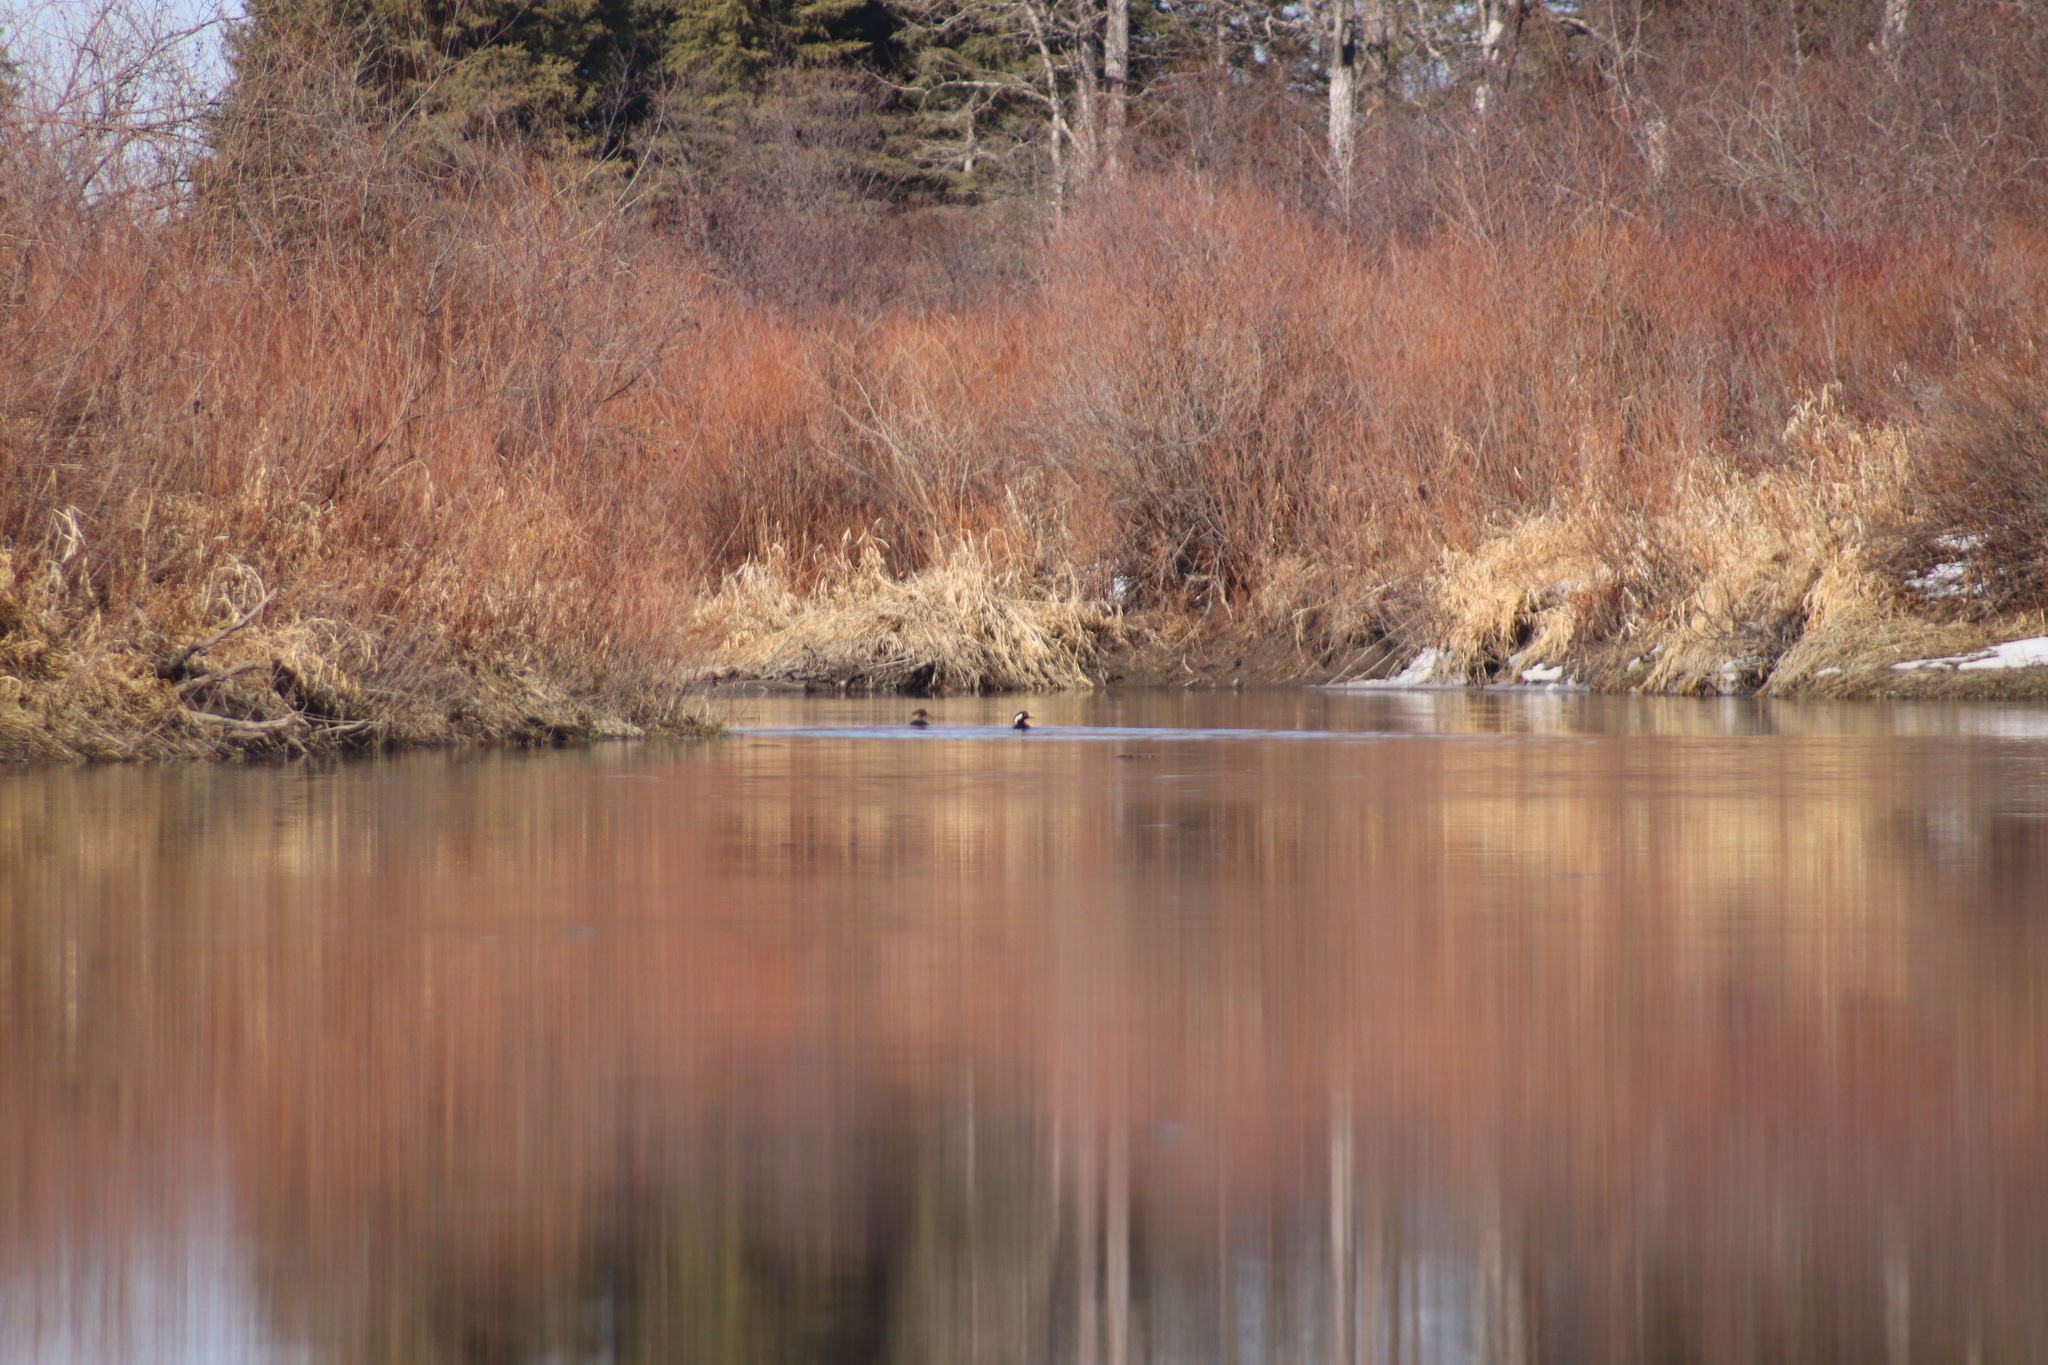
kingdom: Animalia
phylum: Chordata
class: Aves
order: Anseriformes
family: Anatidae
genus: Lophodytes
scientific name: Lophodytes cucullatus
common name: Hooded merganser
